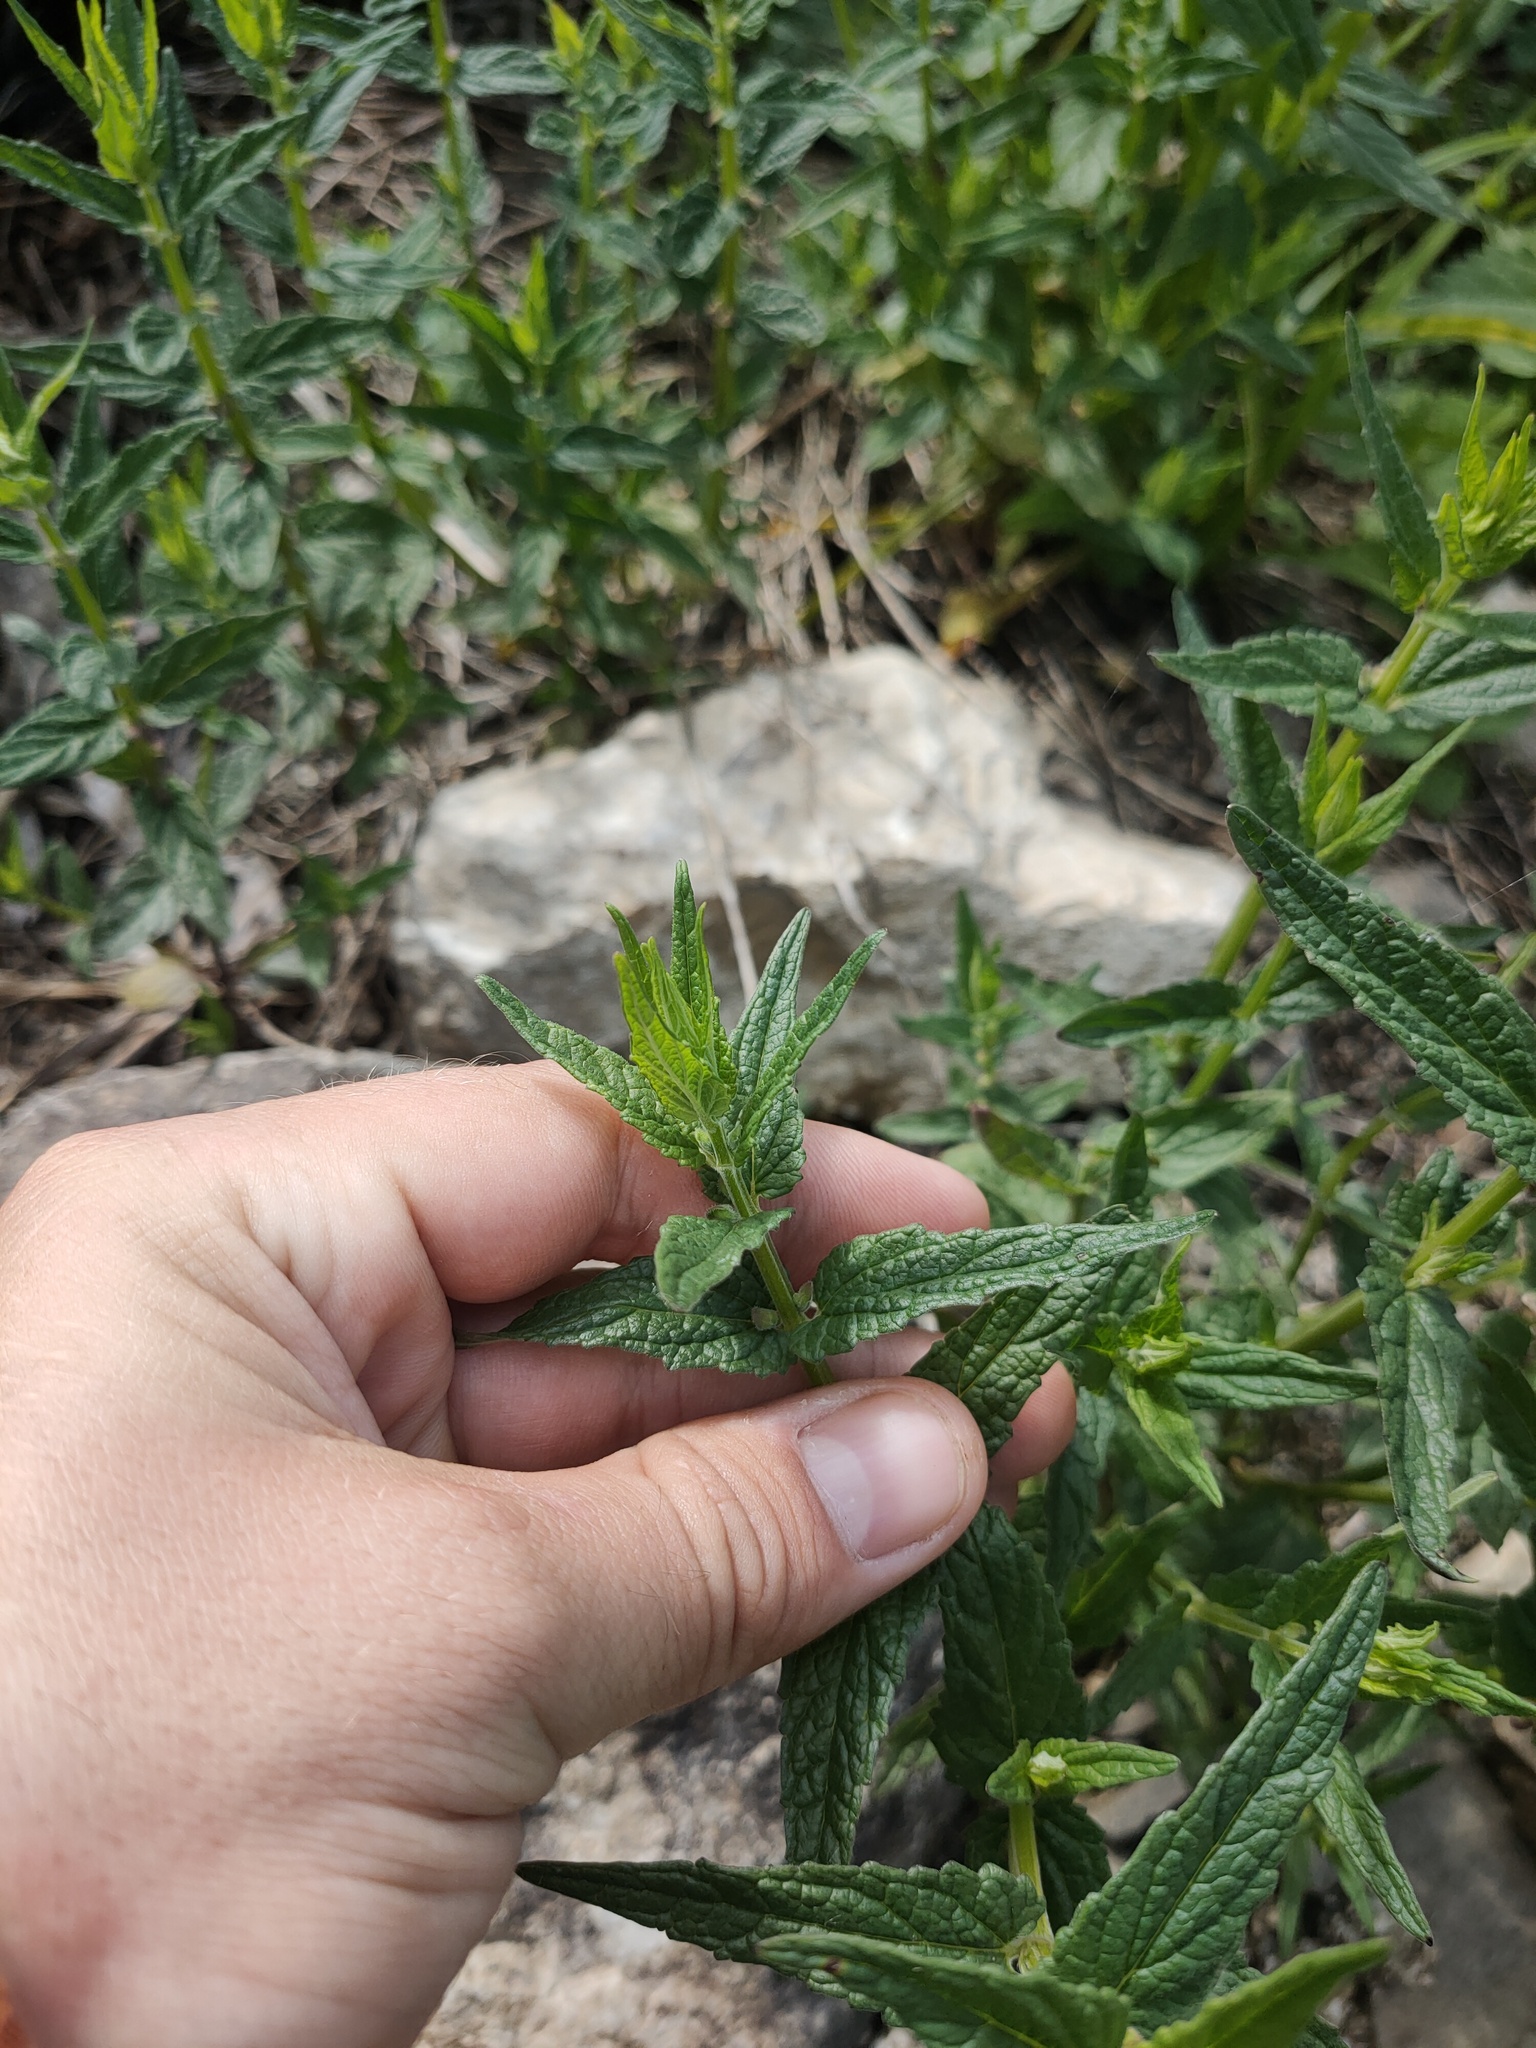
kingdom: Plantae
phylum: Tracheophyta
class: Magnoliopsida
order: Lamiales
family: Lamiaceae
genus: Stachys
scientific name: Stachys palustris
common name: Marsh woundwort
